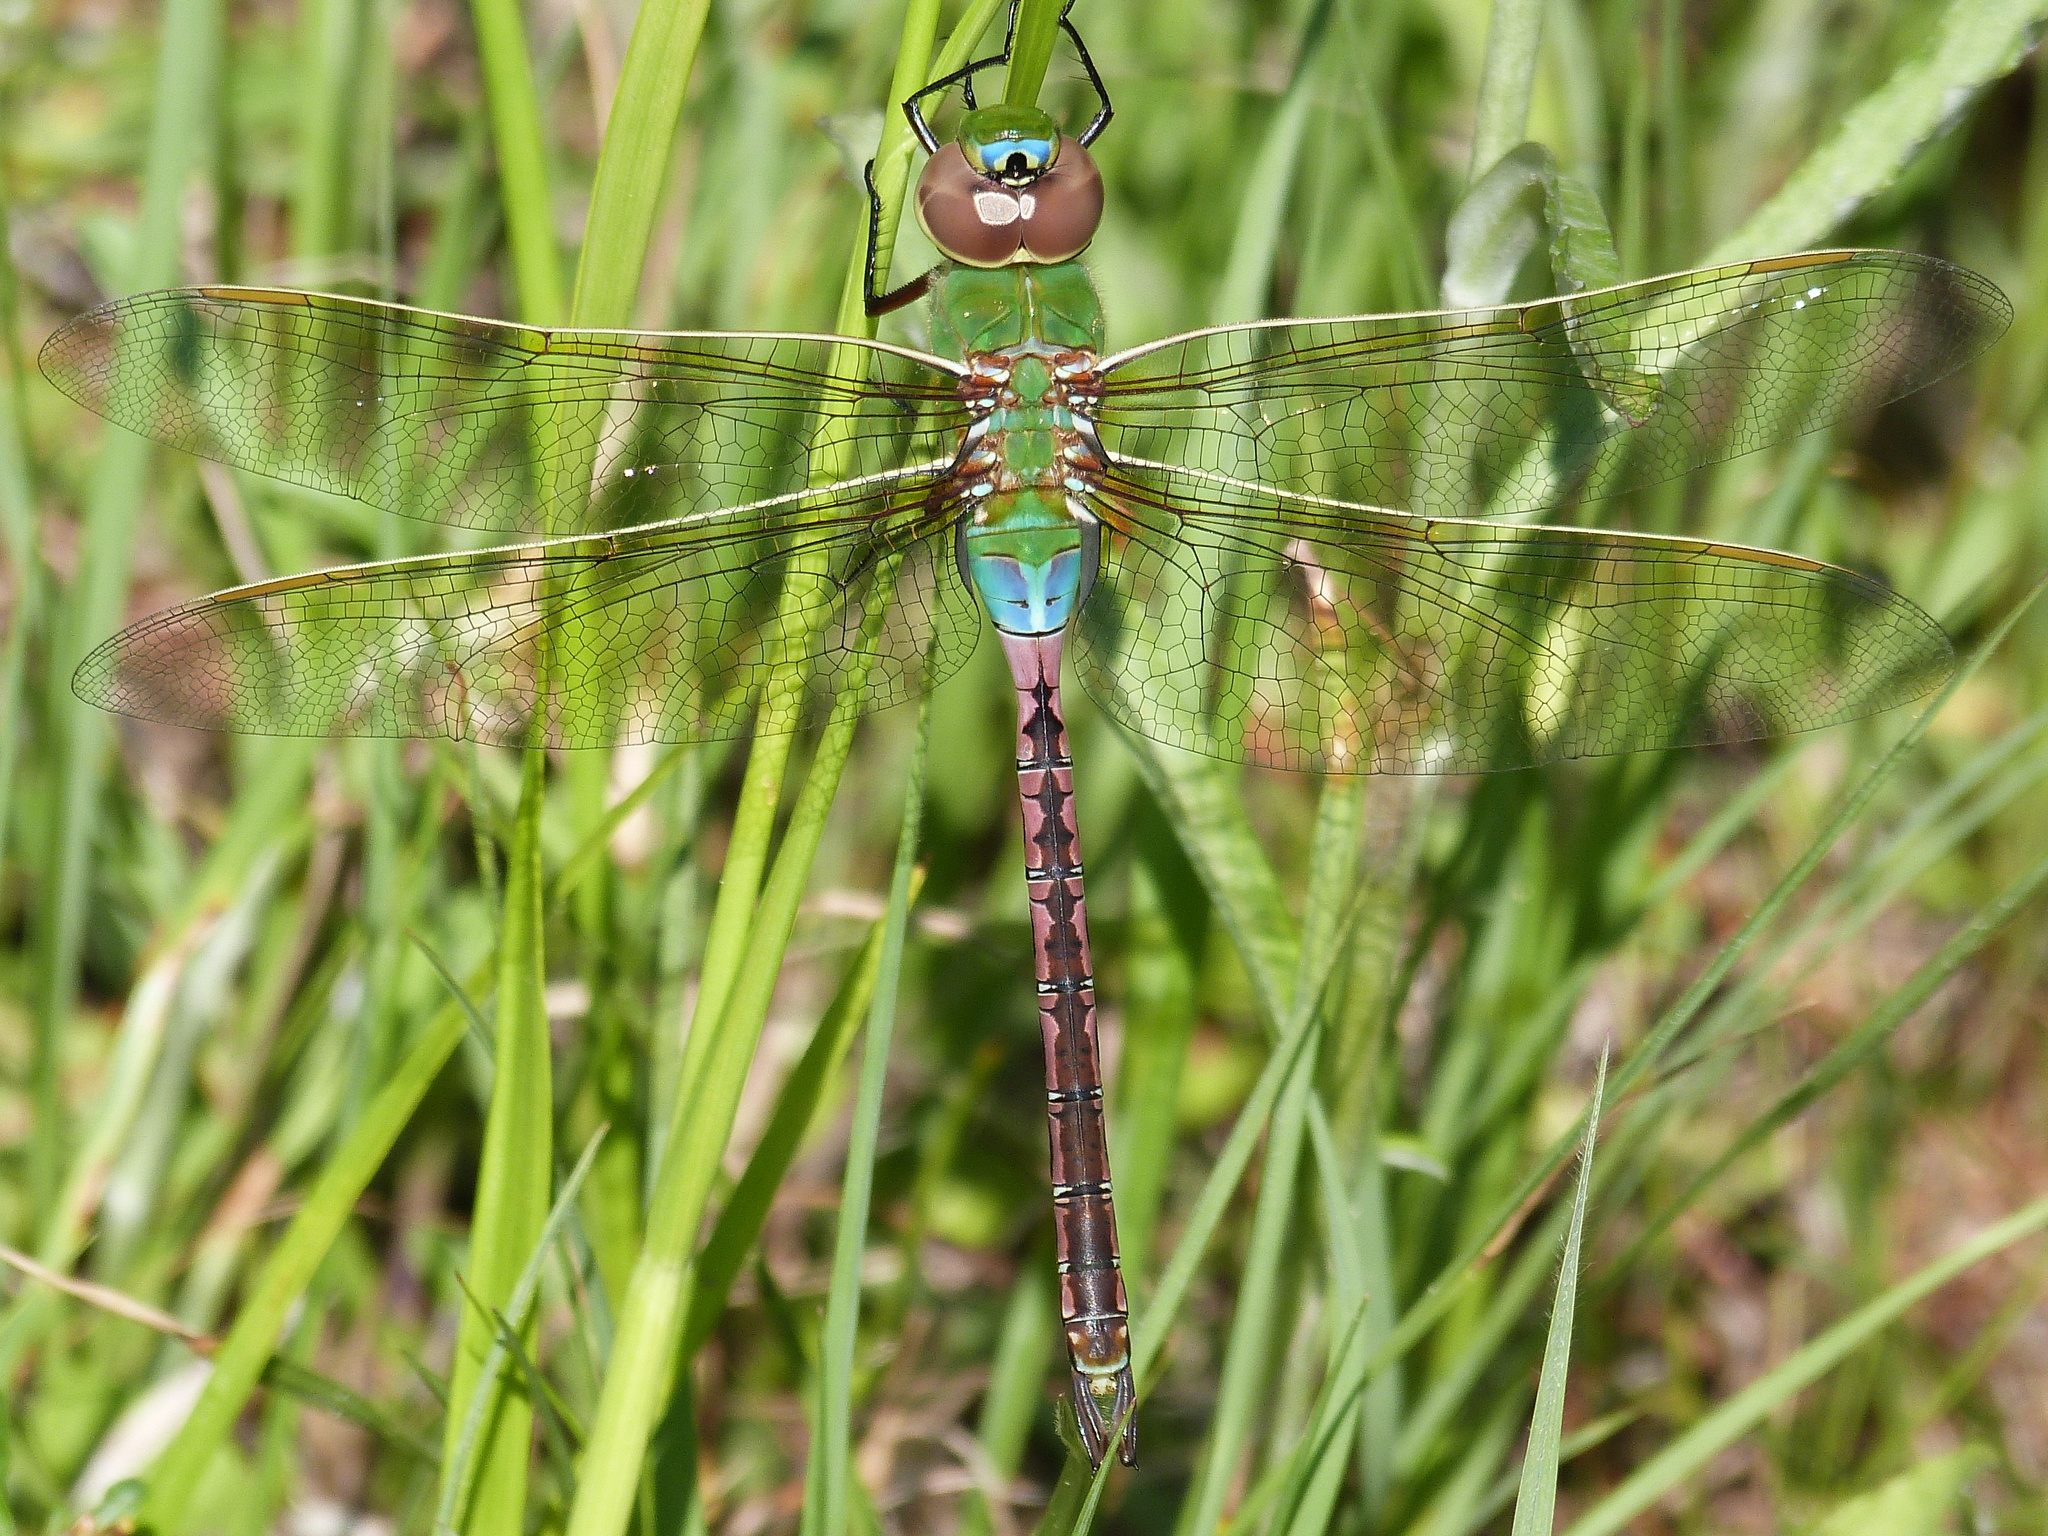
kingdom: Animalia
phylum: Arthropoda
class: Insecta
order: Odonata
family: Aeshnidae
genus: Anax
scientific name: Anax junius
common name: Common green darner
